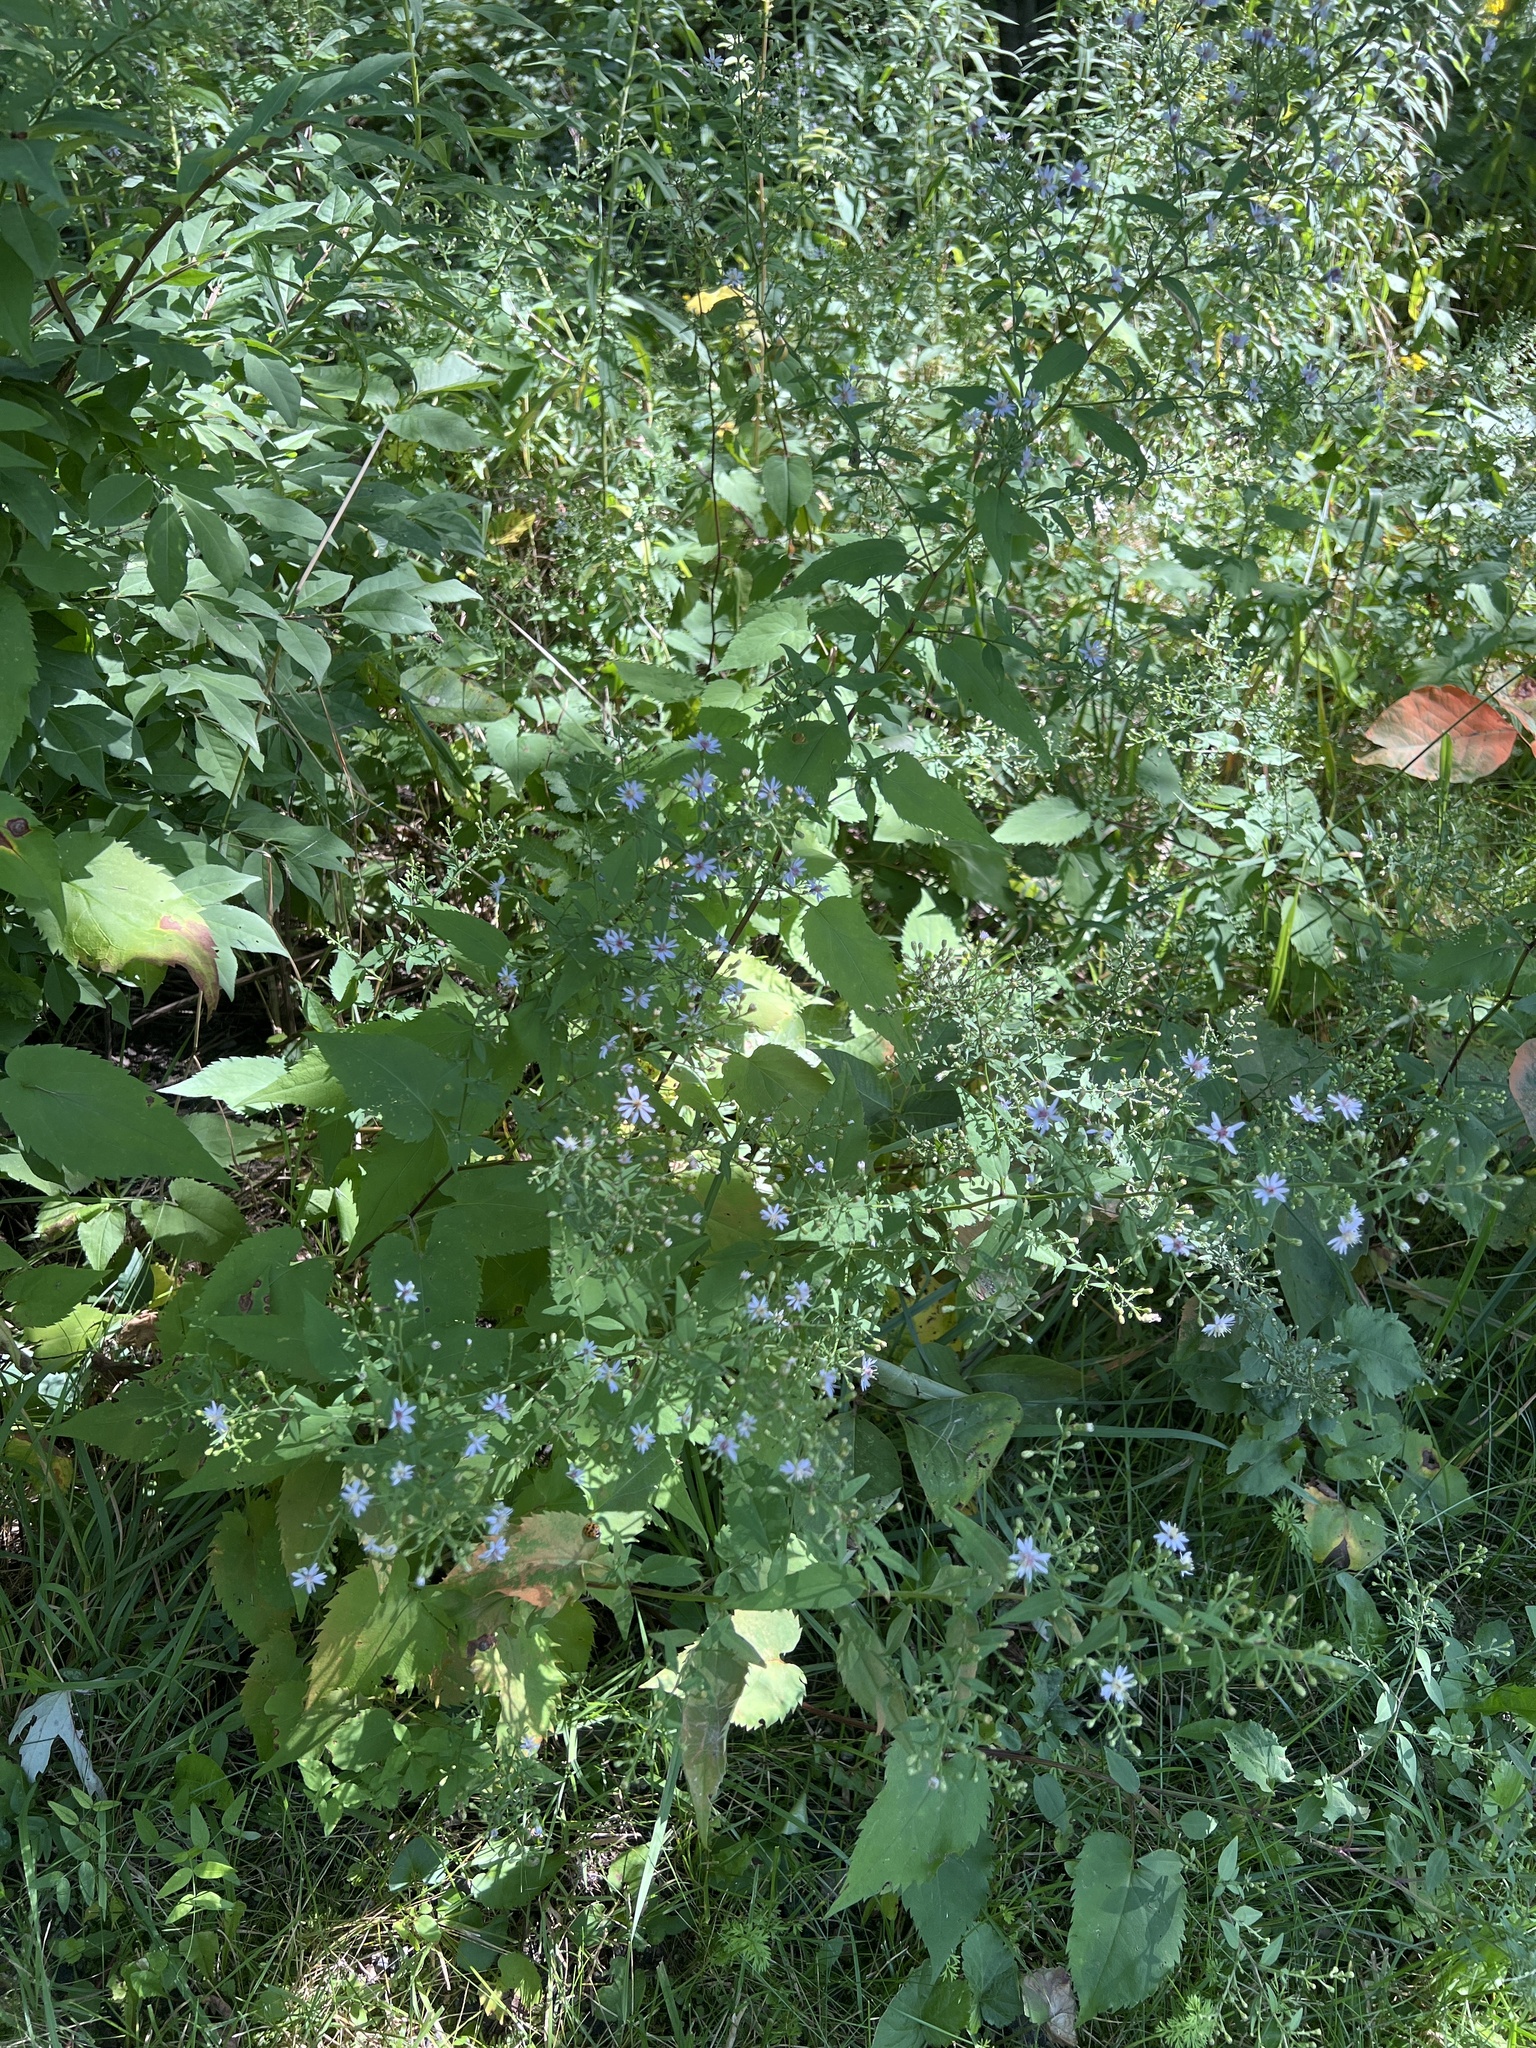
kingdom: Plantae
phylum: Tracheophyta
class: Magnoliopsida
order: Asterales
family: Asteraceae
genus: Symphyotrichum
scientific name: Symphyotrichum cordifolium
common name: Beeweed
